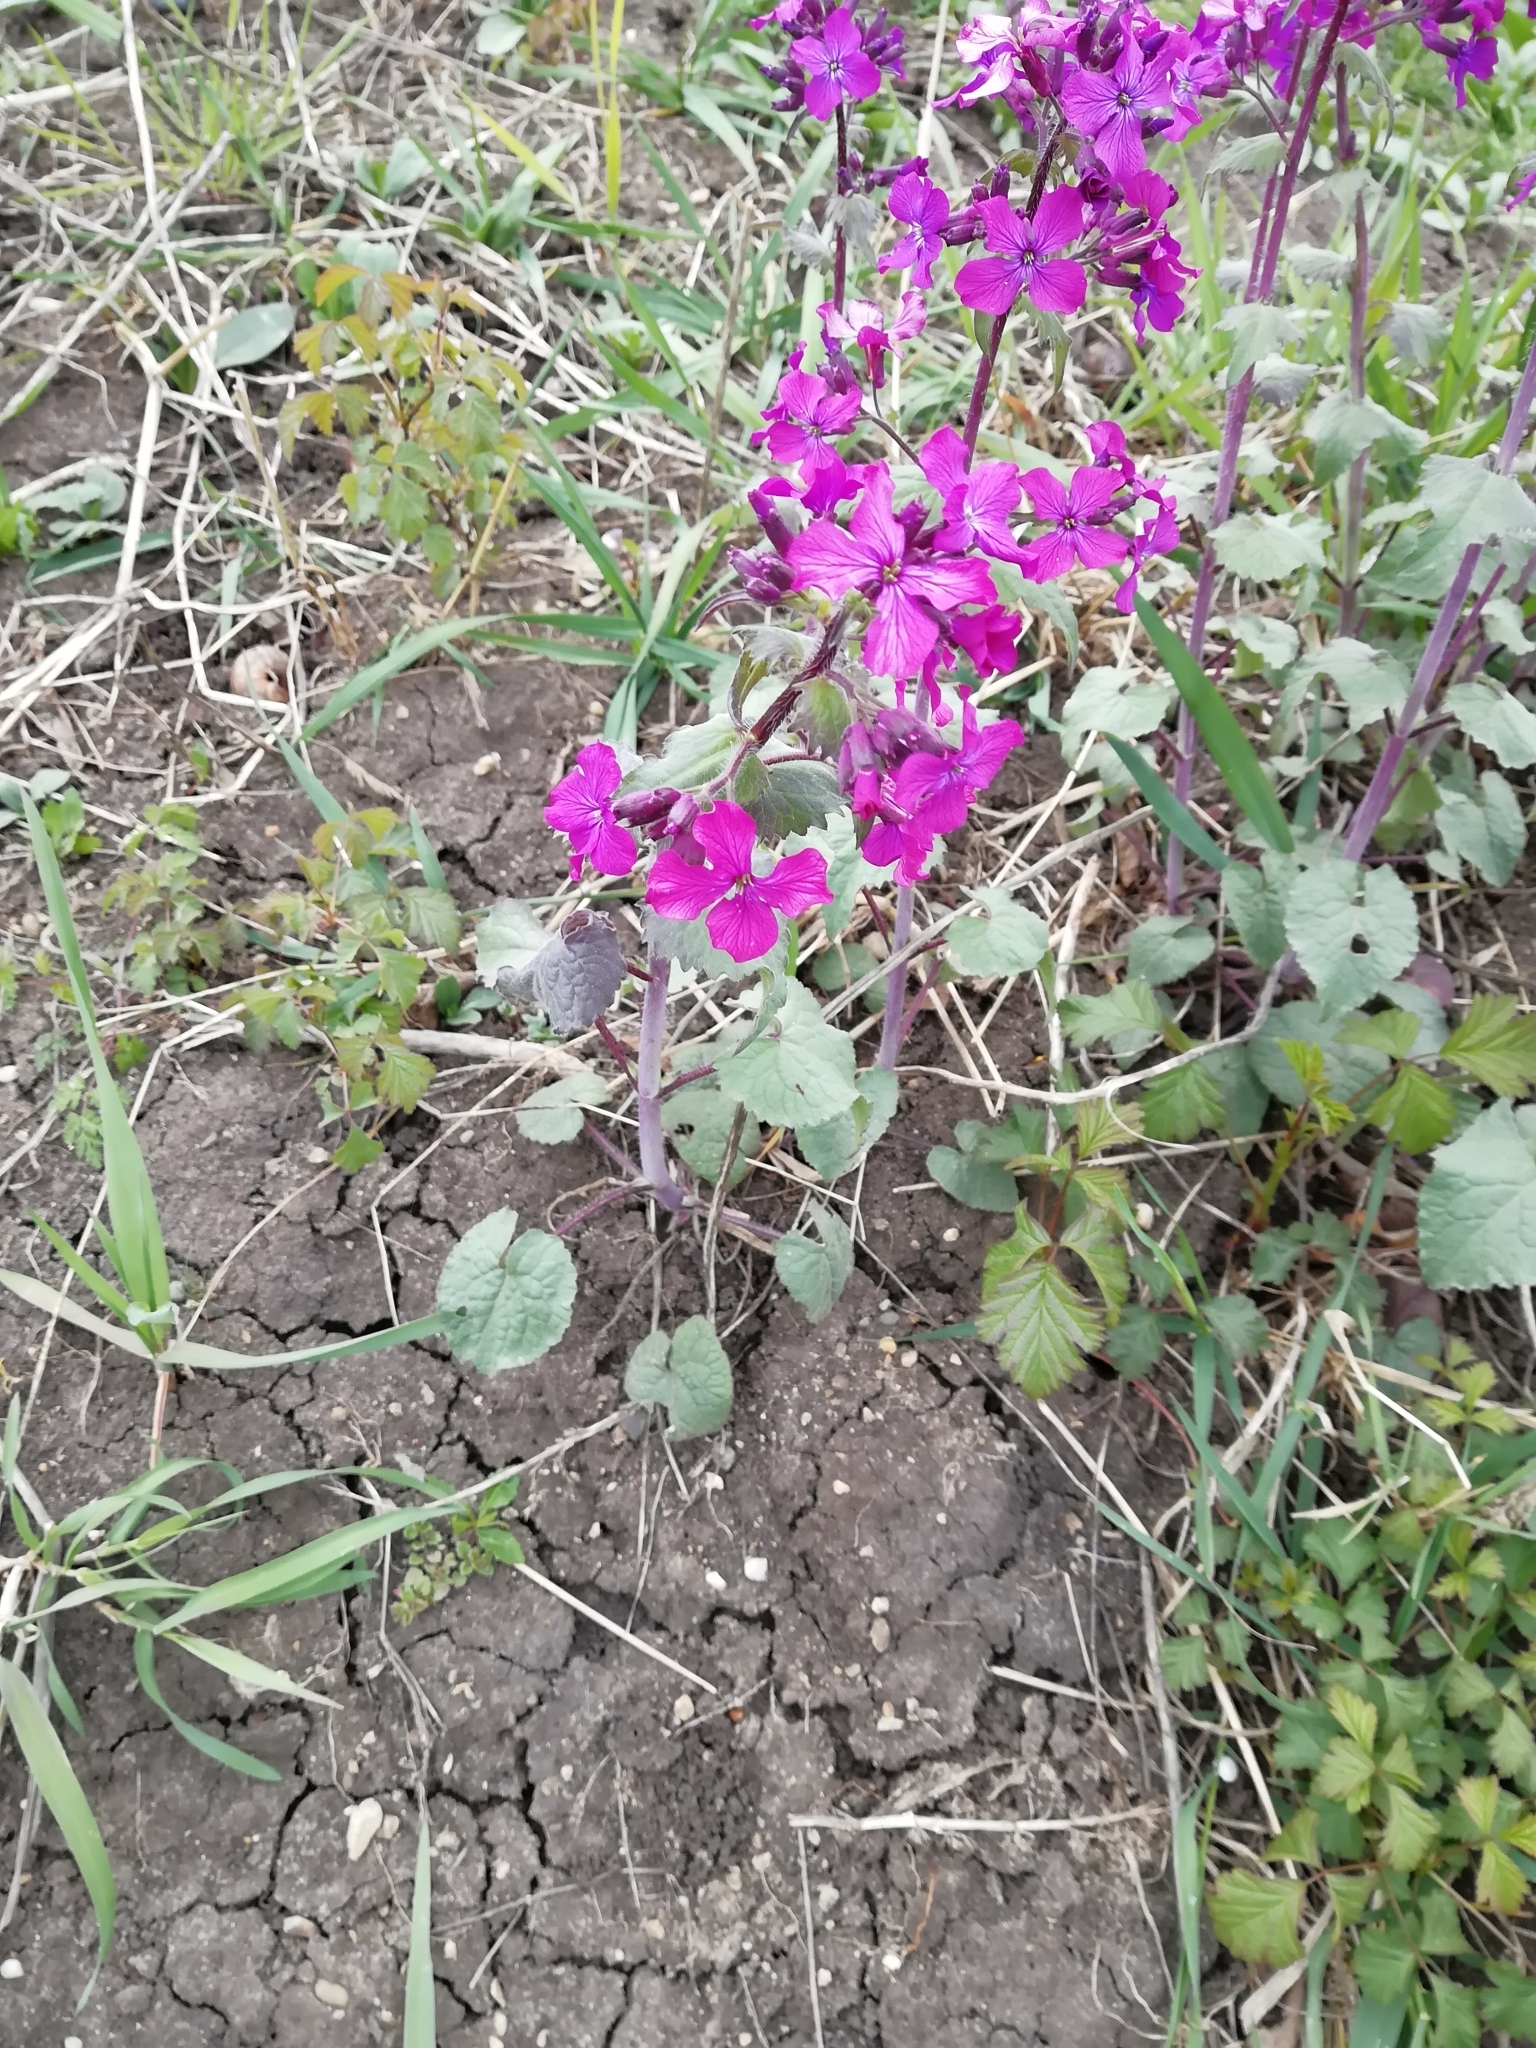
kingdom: Plantae
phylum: Tracheophyta
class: Magnoliopsida
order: Brassicales
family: Brassicaceae
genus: Lunaria
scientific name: Lunaria annua
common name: Honesty
